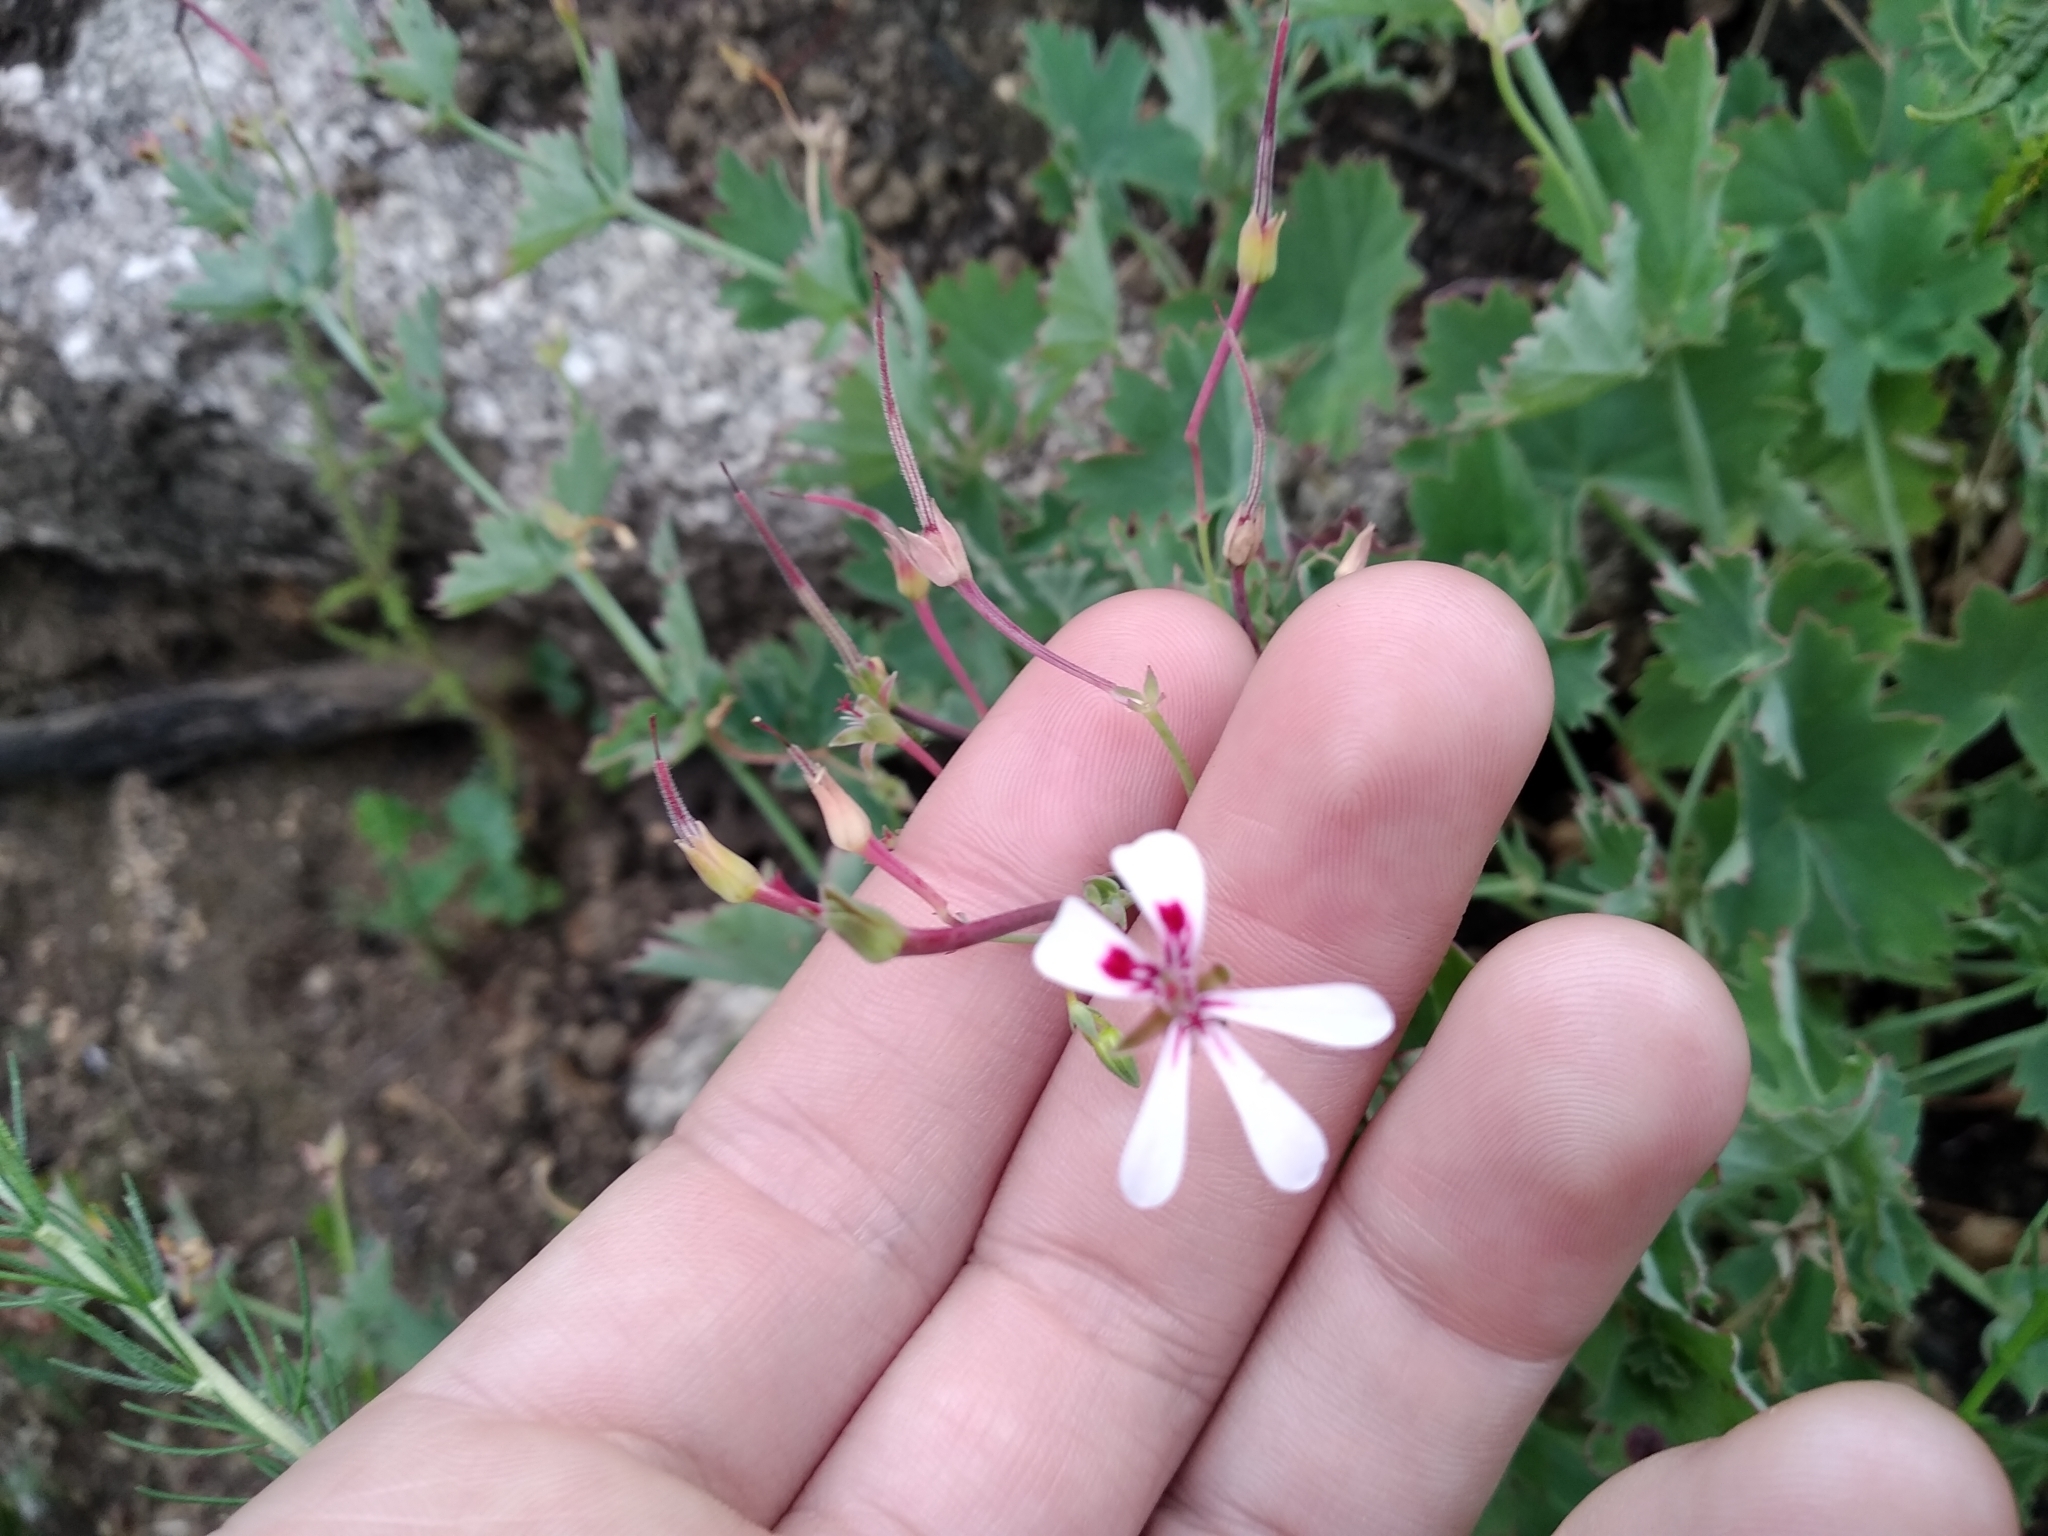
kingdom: Plantae
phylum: Tracheophyta
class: Magnoliopsida
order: Geraniales
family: Geraniaceae
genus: Pelargonium
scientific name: Pelargonium patulum
